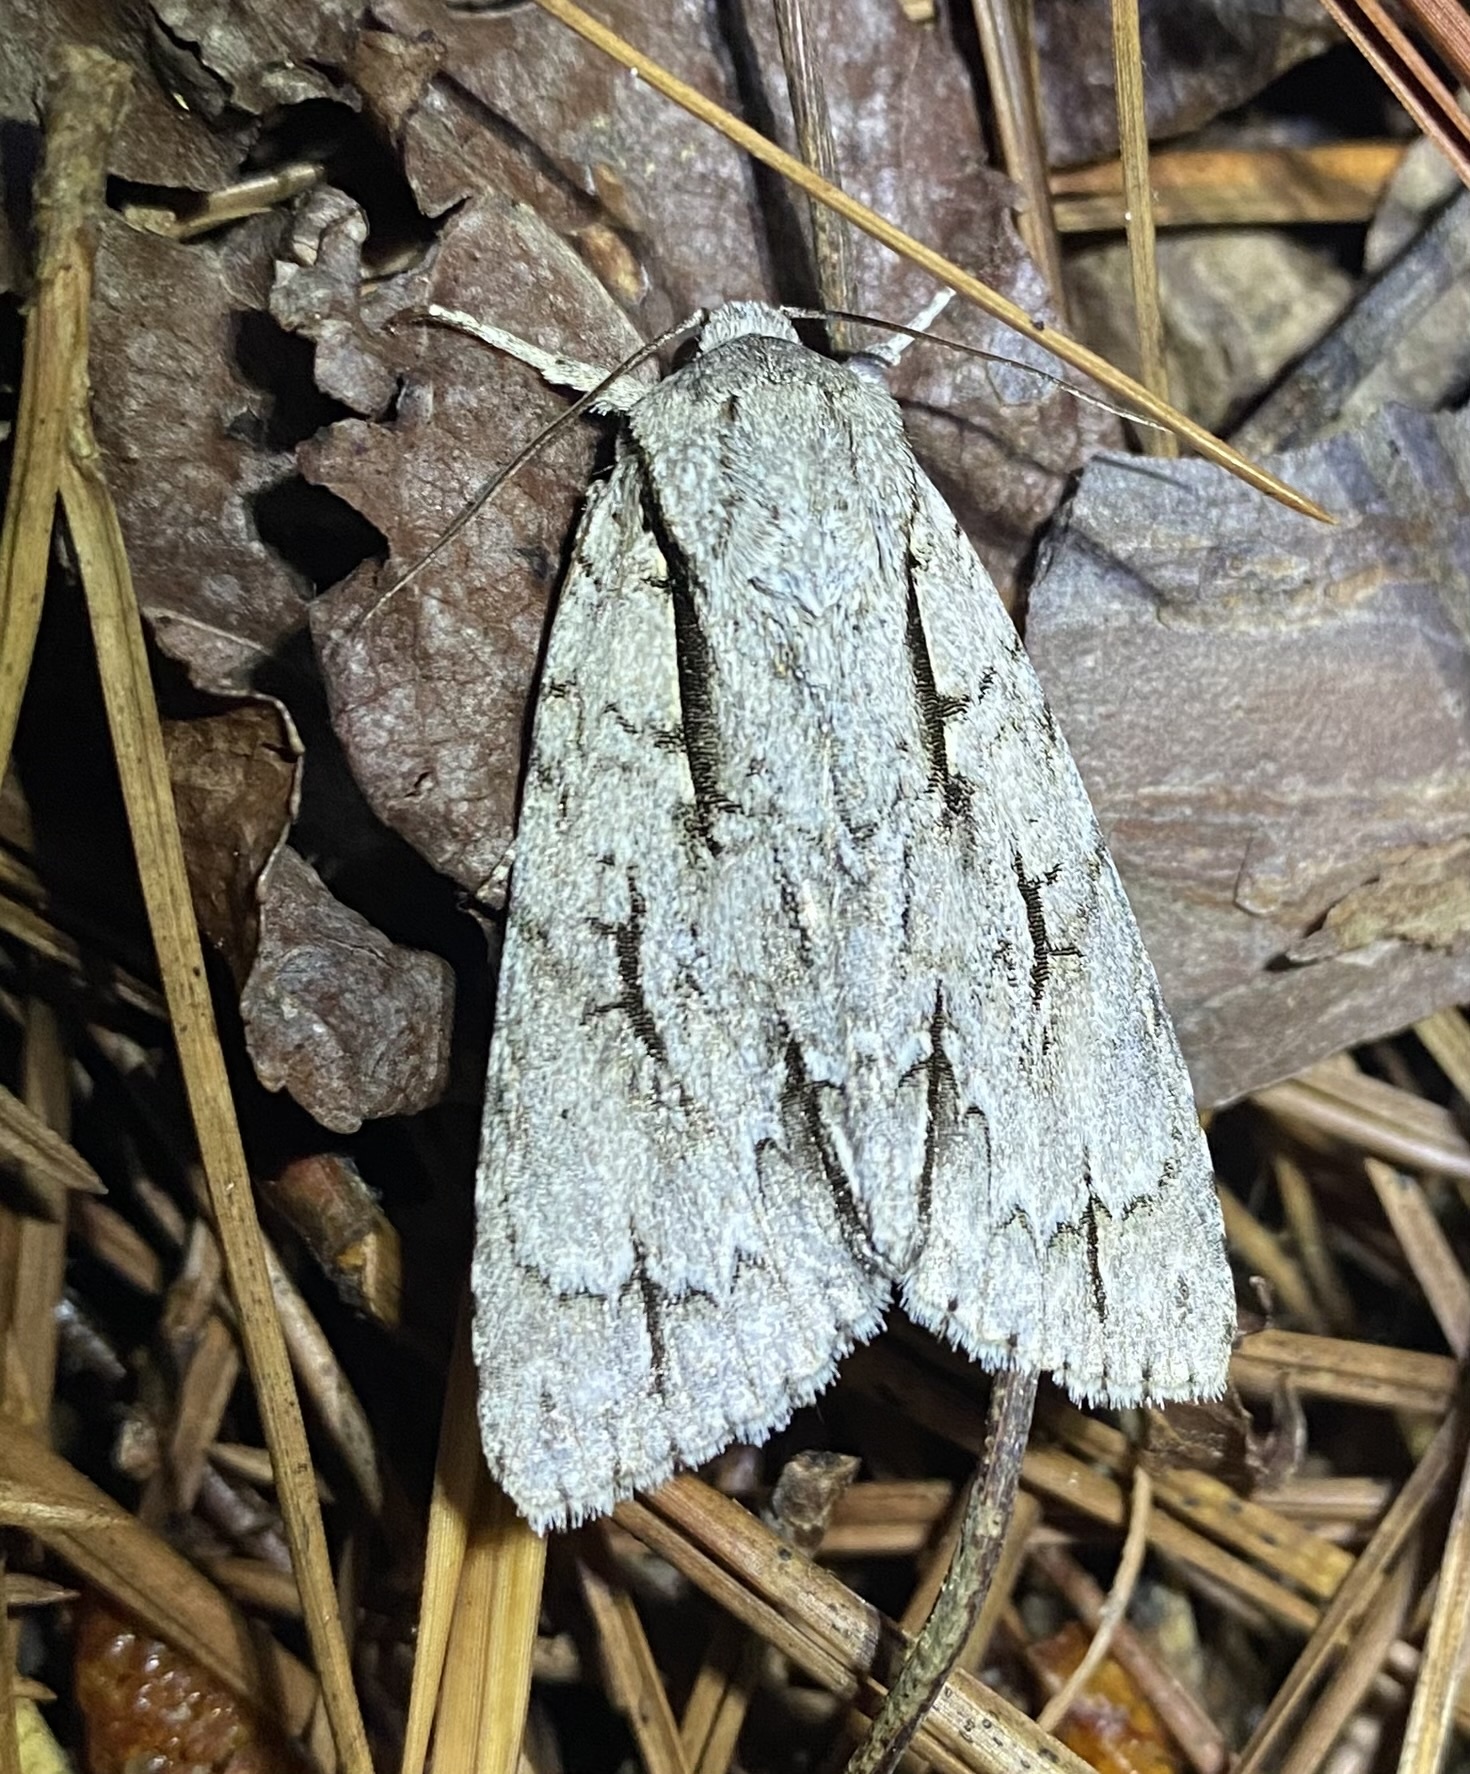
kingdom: Animalia
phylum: Arthropoda
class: Insecta
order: Lepidoptera
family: Noctuidae
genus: Acronicta
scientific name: Acronicta lobeliae
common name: Greater oak dagger
